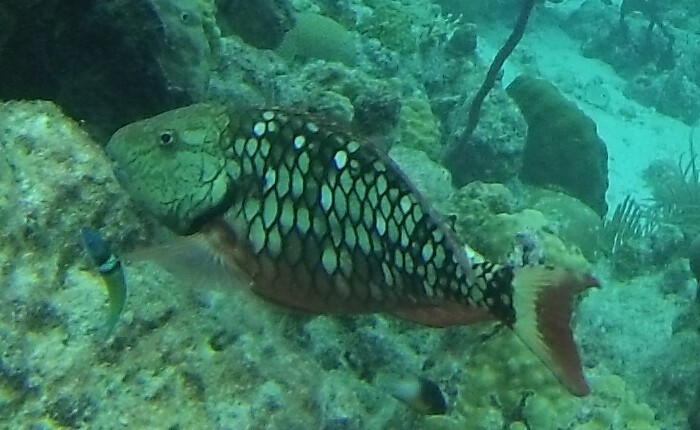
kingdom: Animalia
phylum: Chordata
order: Perciformes
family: Scaridae
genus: Sparisoma
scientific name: Sparisoma viride
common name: Stoplight parrotfish
